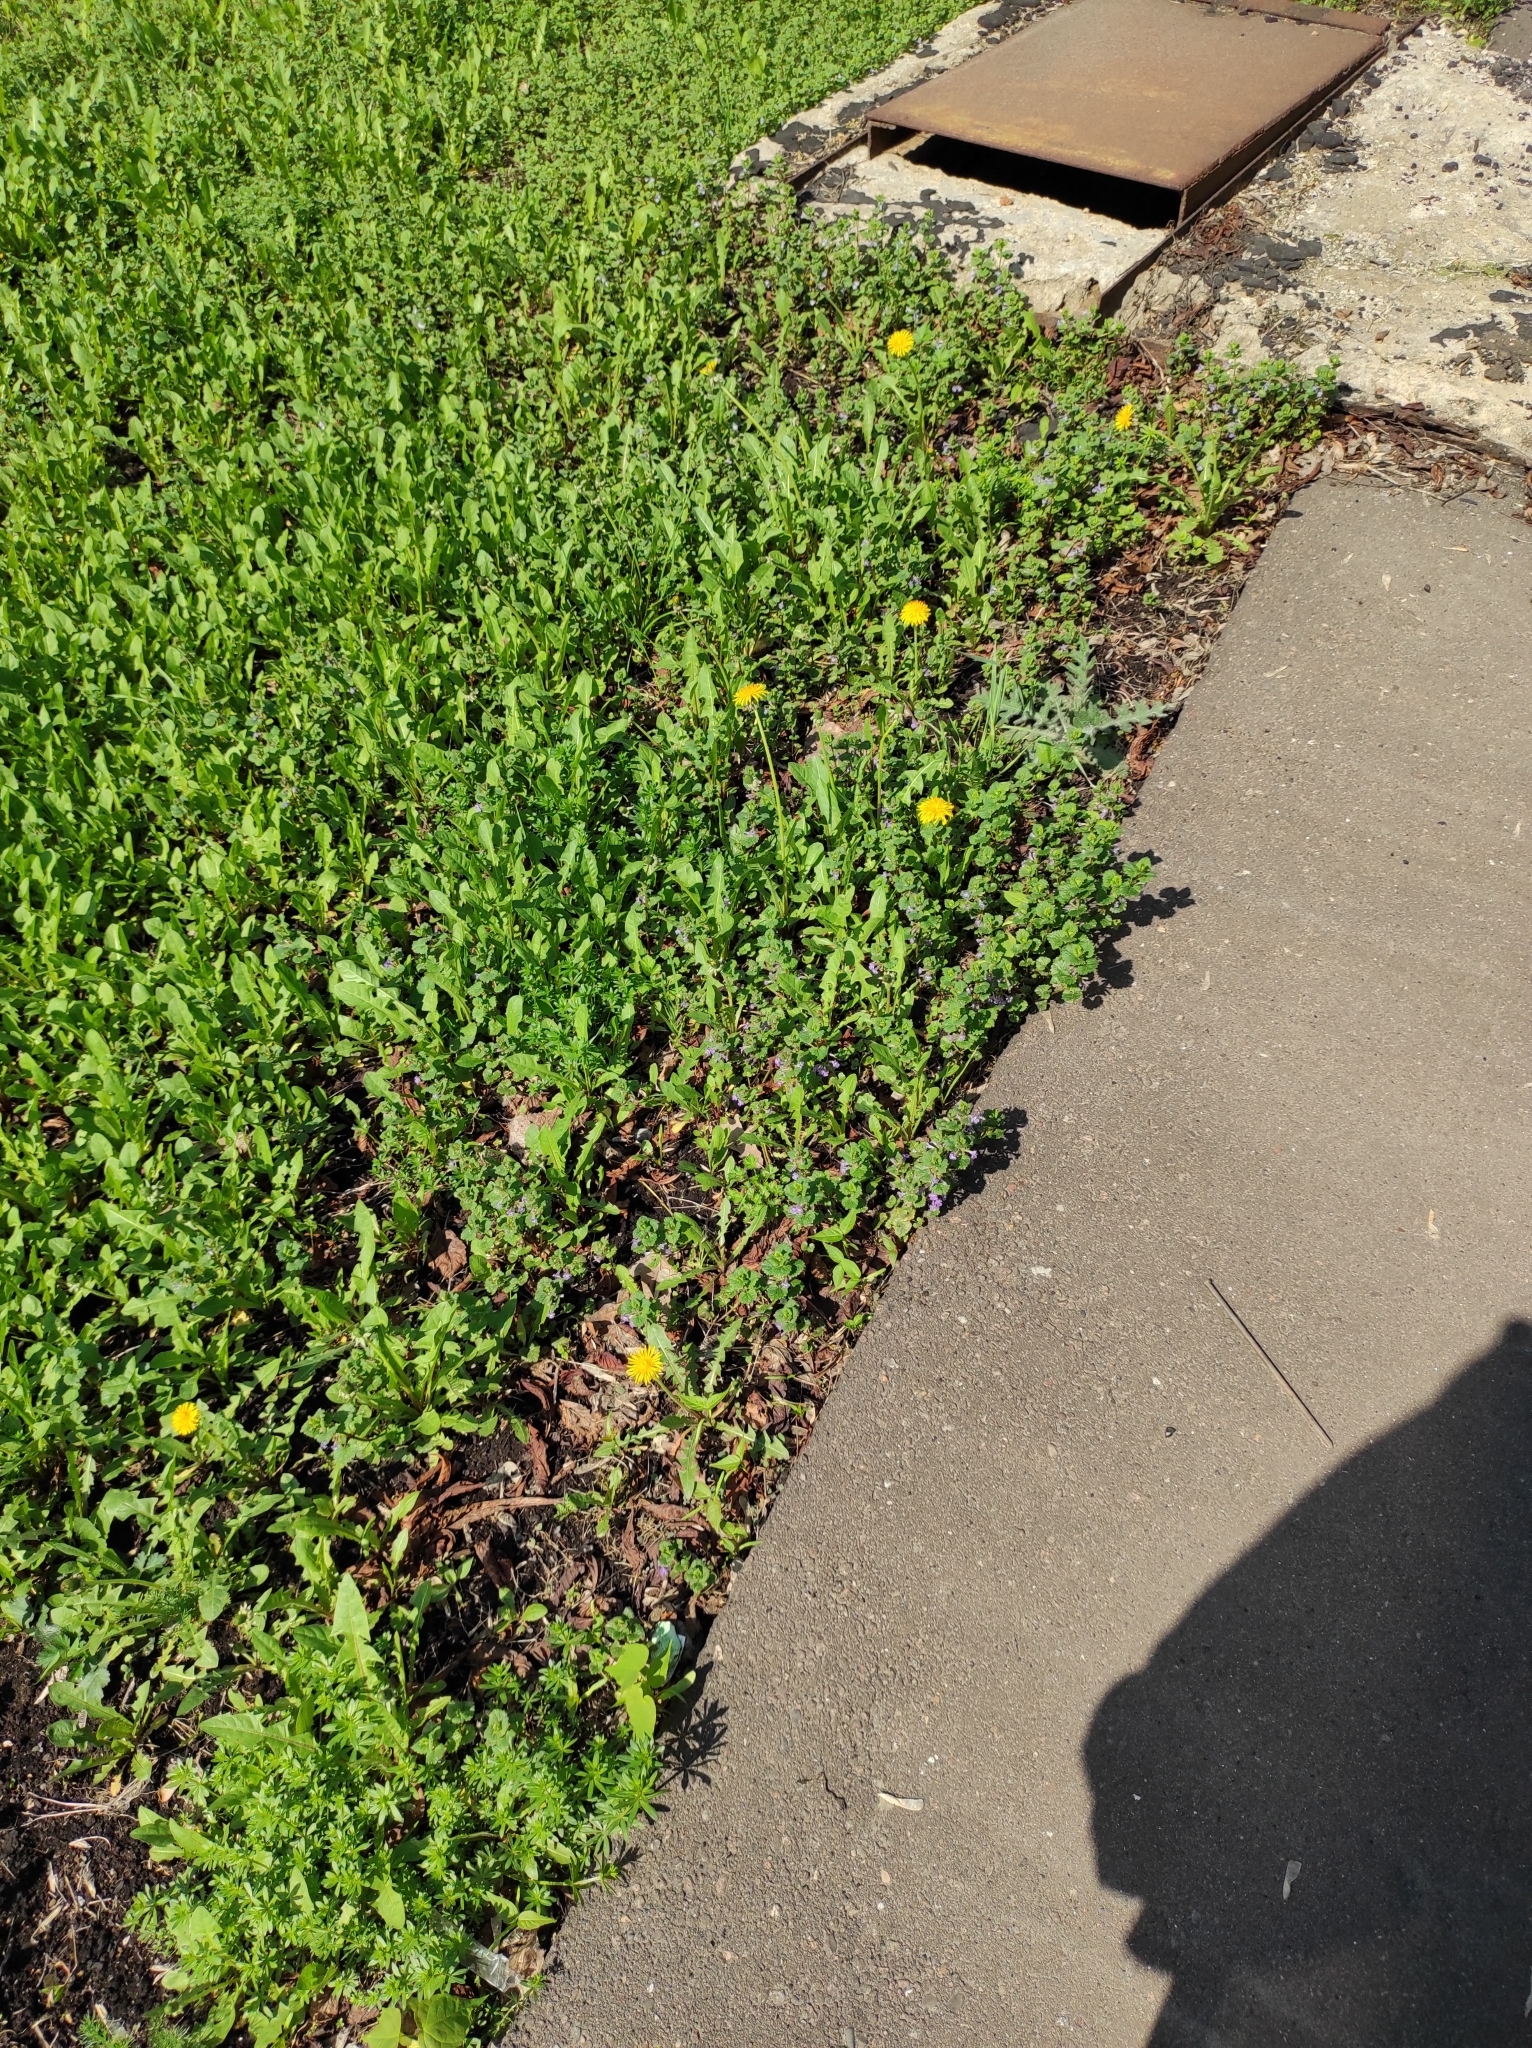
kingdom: Plantae
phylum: Tracheophyta
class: Magnoliopsida
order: Lamiales
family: Lamiaceae
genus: Glechoma
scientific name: Glechoma hederacea
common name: Ground ivy
